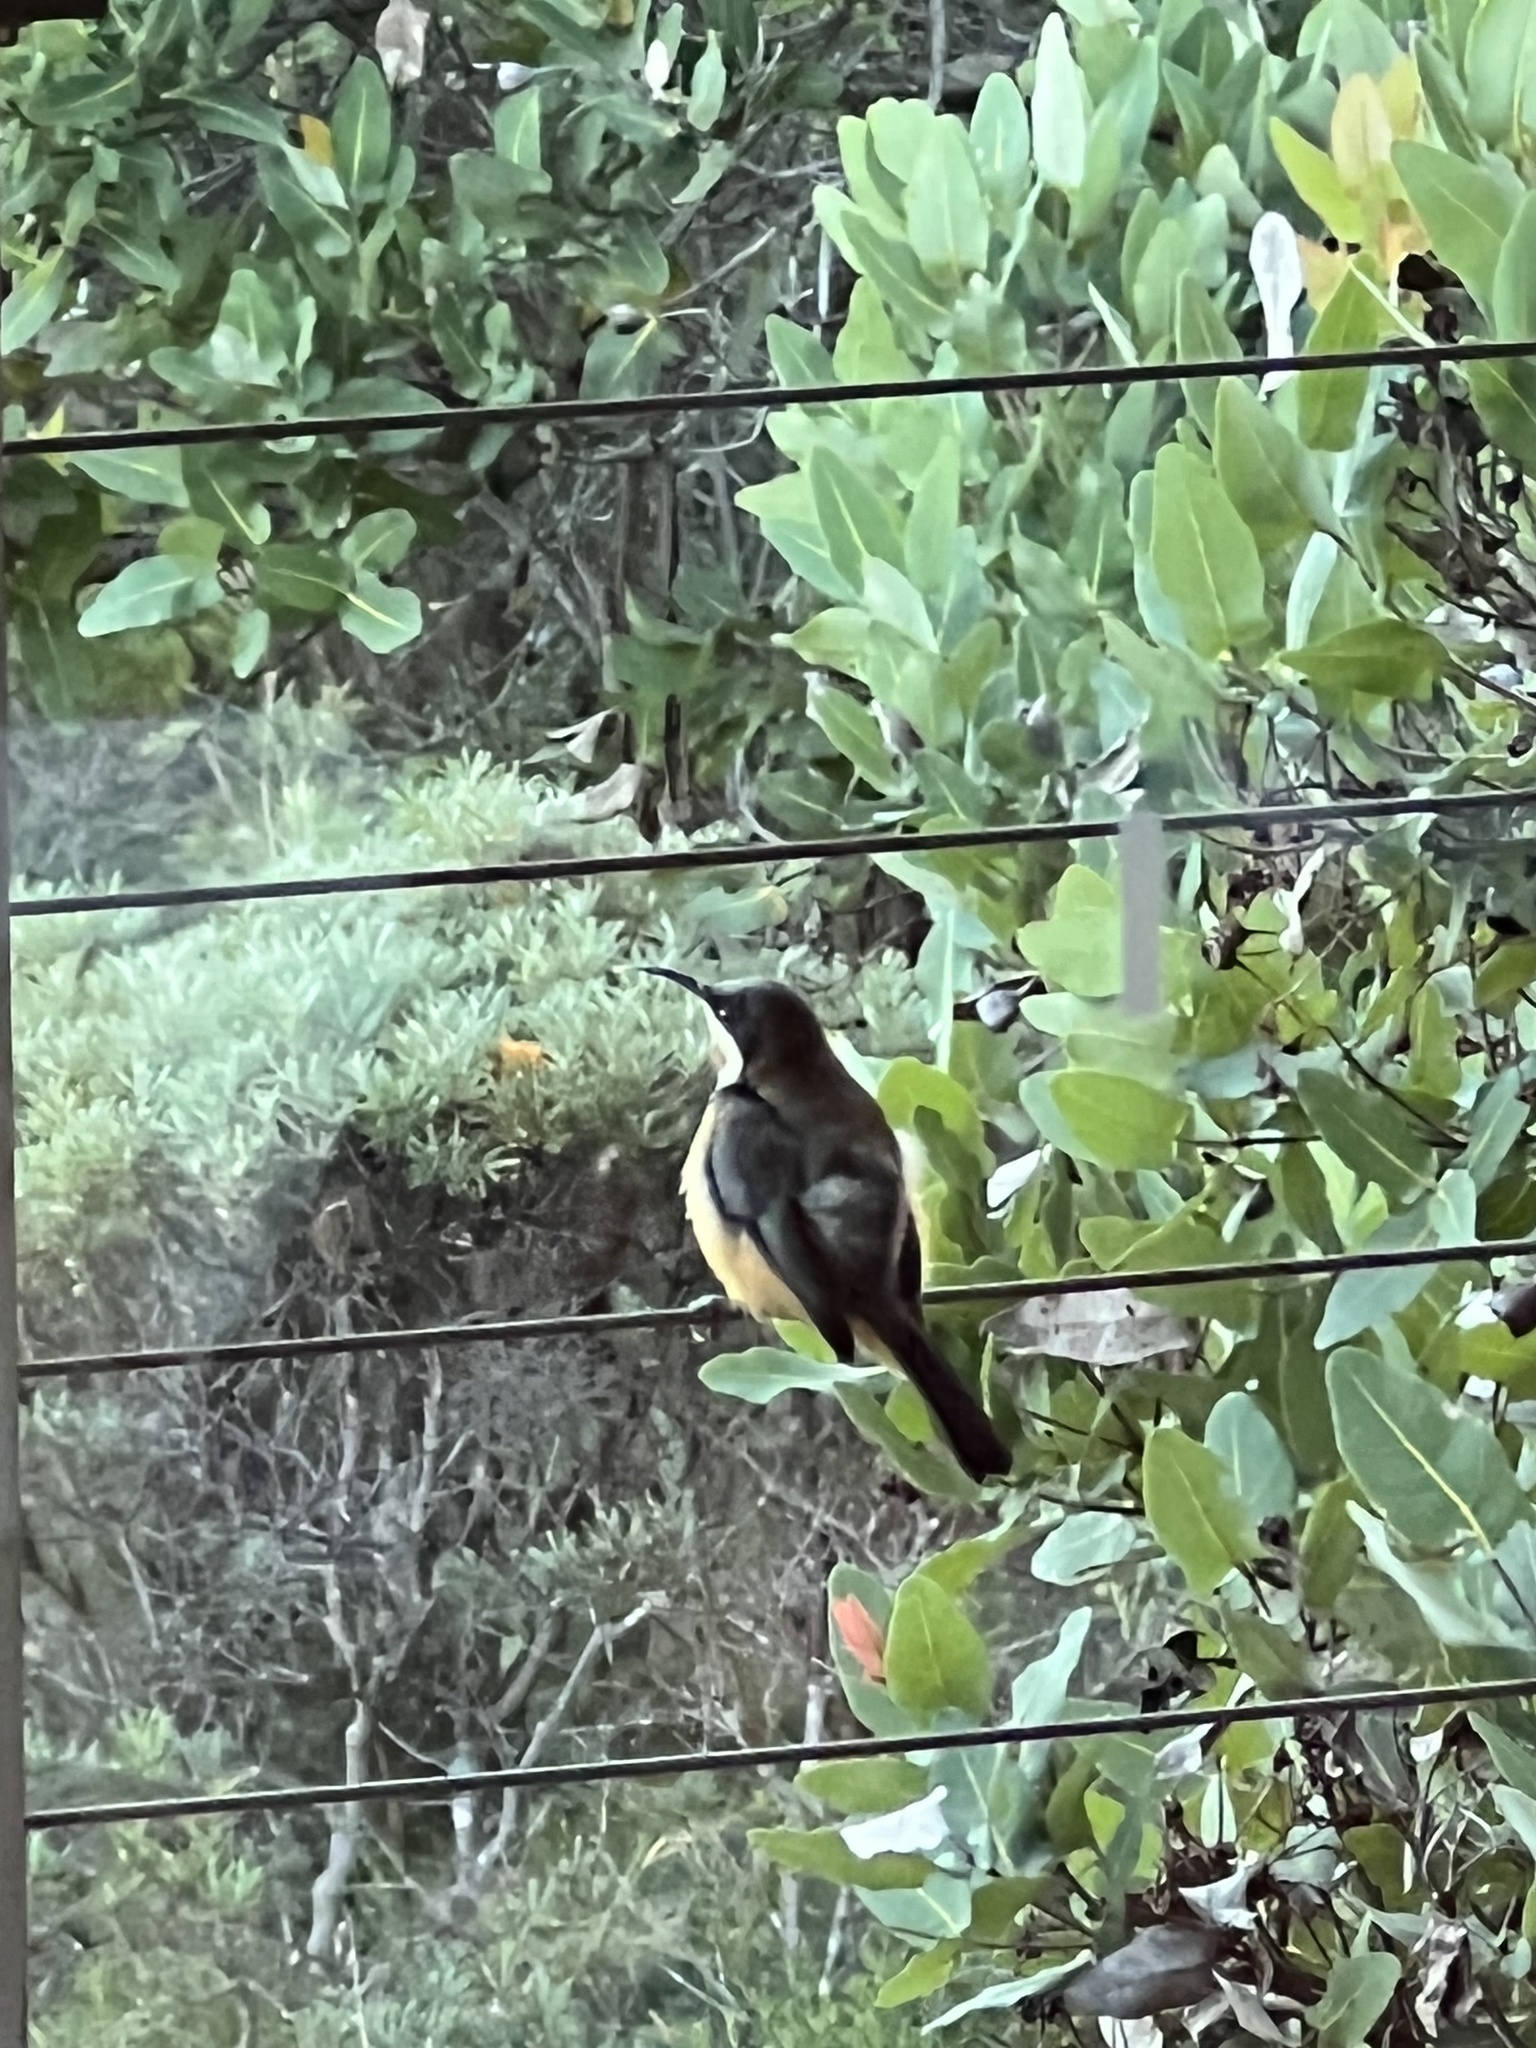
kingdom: Animalia
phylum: Chordata
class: Aves
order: Passeriformes
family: Meliphagidae
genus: Acanthorhynchus
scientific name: Acanthorhynchus tenuirostris
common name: Eastern spinebill
